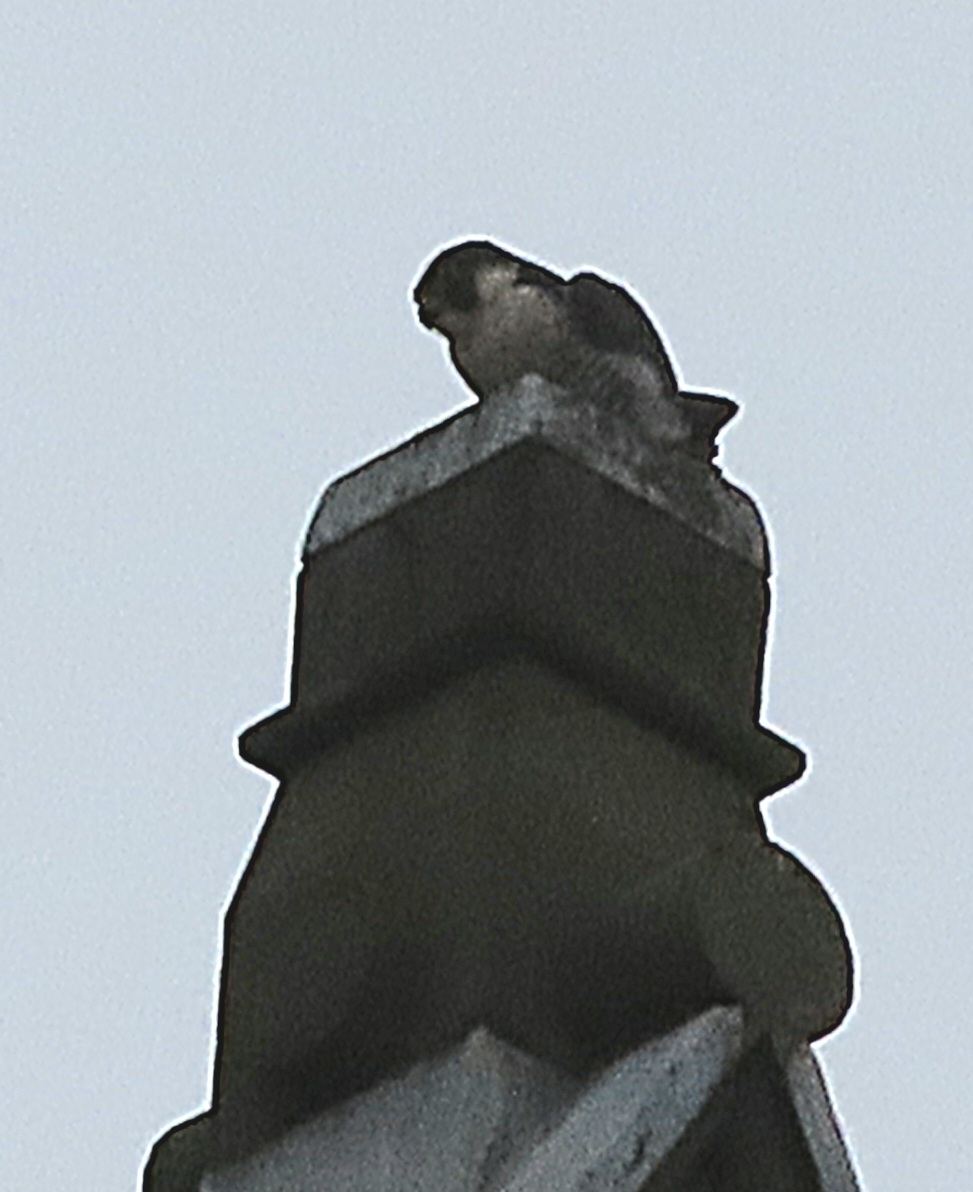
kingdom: Animalia
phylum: Chordata
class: Aves
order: Falconiformes
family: Falconidae
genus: Falco
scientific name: Falco peregrinus
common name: Peregrine falcon
